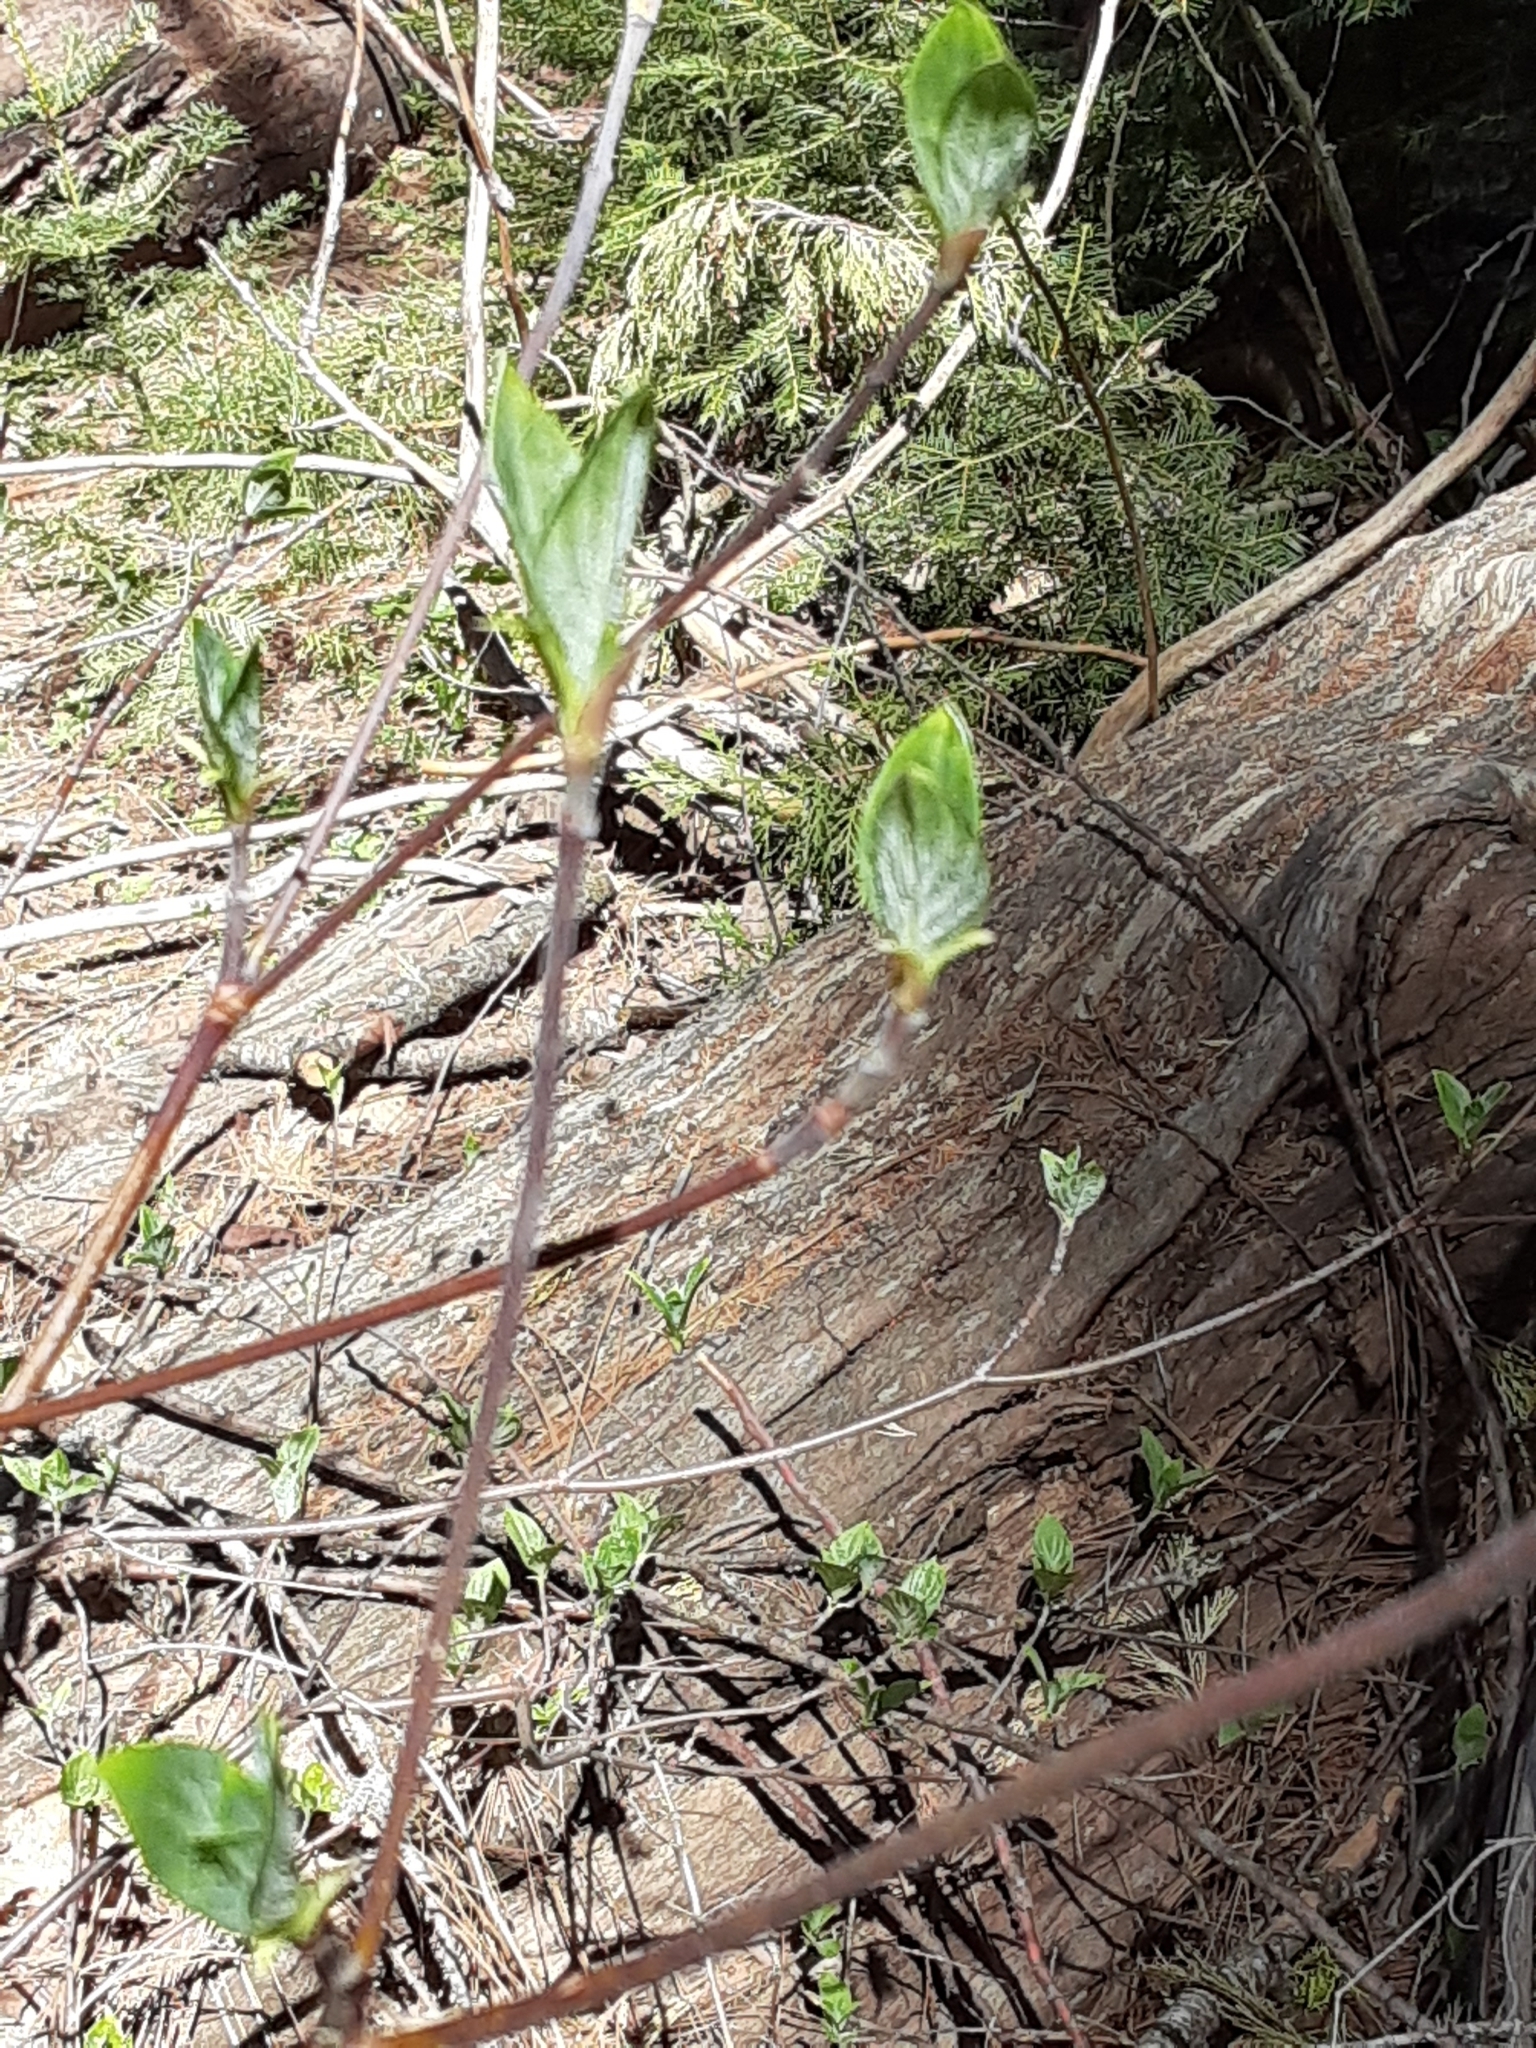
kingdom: Plantae
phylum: Tracheophyta
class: Magnoliopsida
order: Cornales
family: Cornaceae
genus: Cornus
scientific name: Cornus nuttallii
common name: Pacific dogwood
